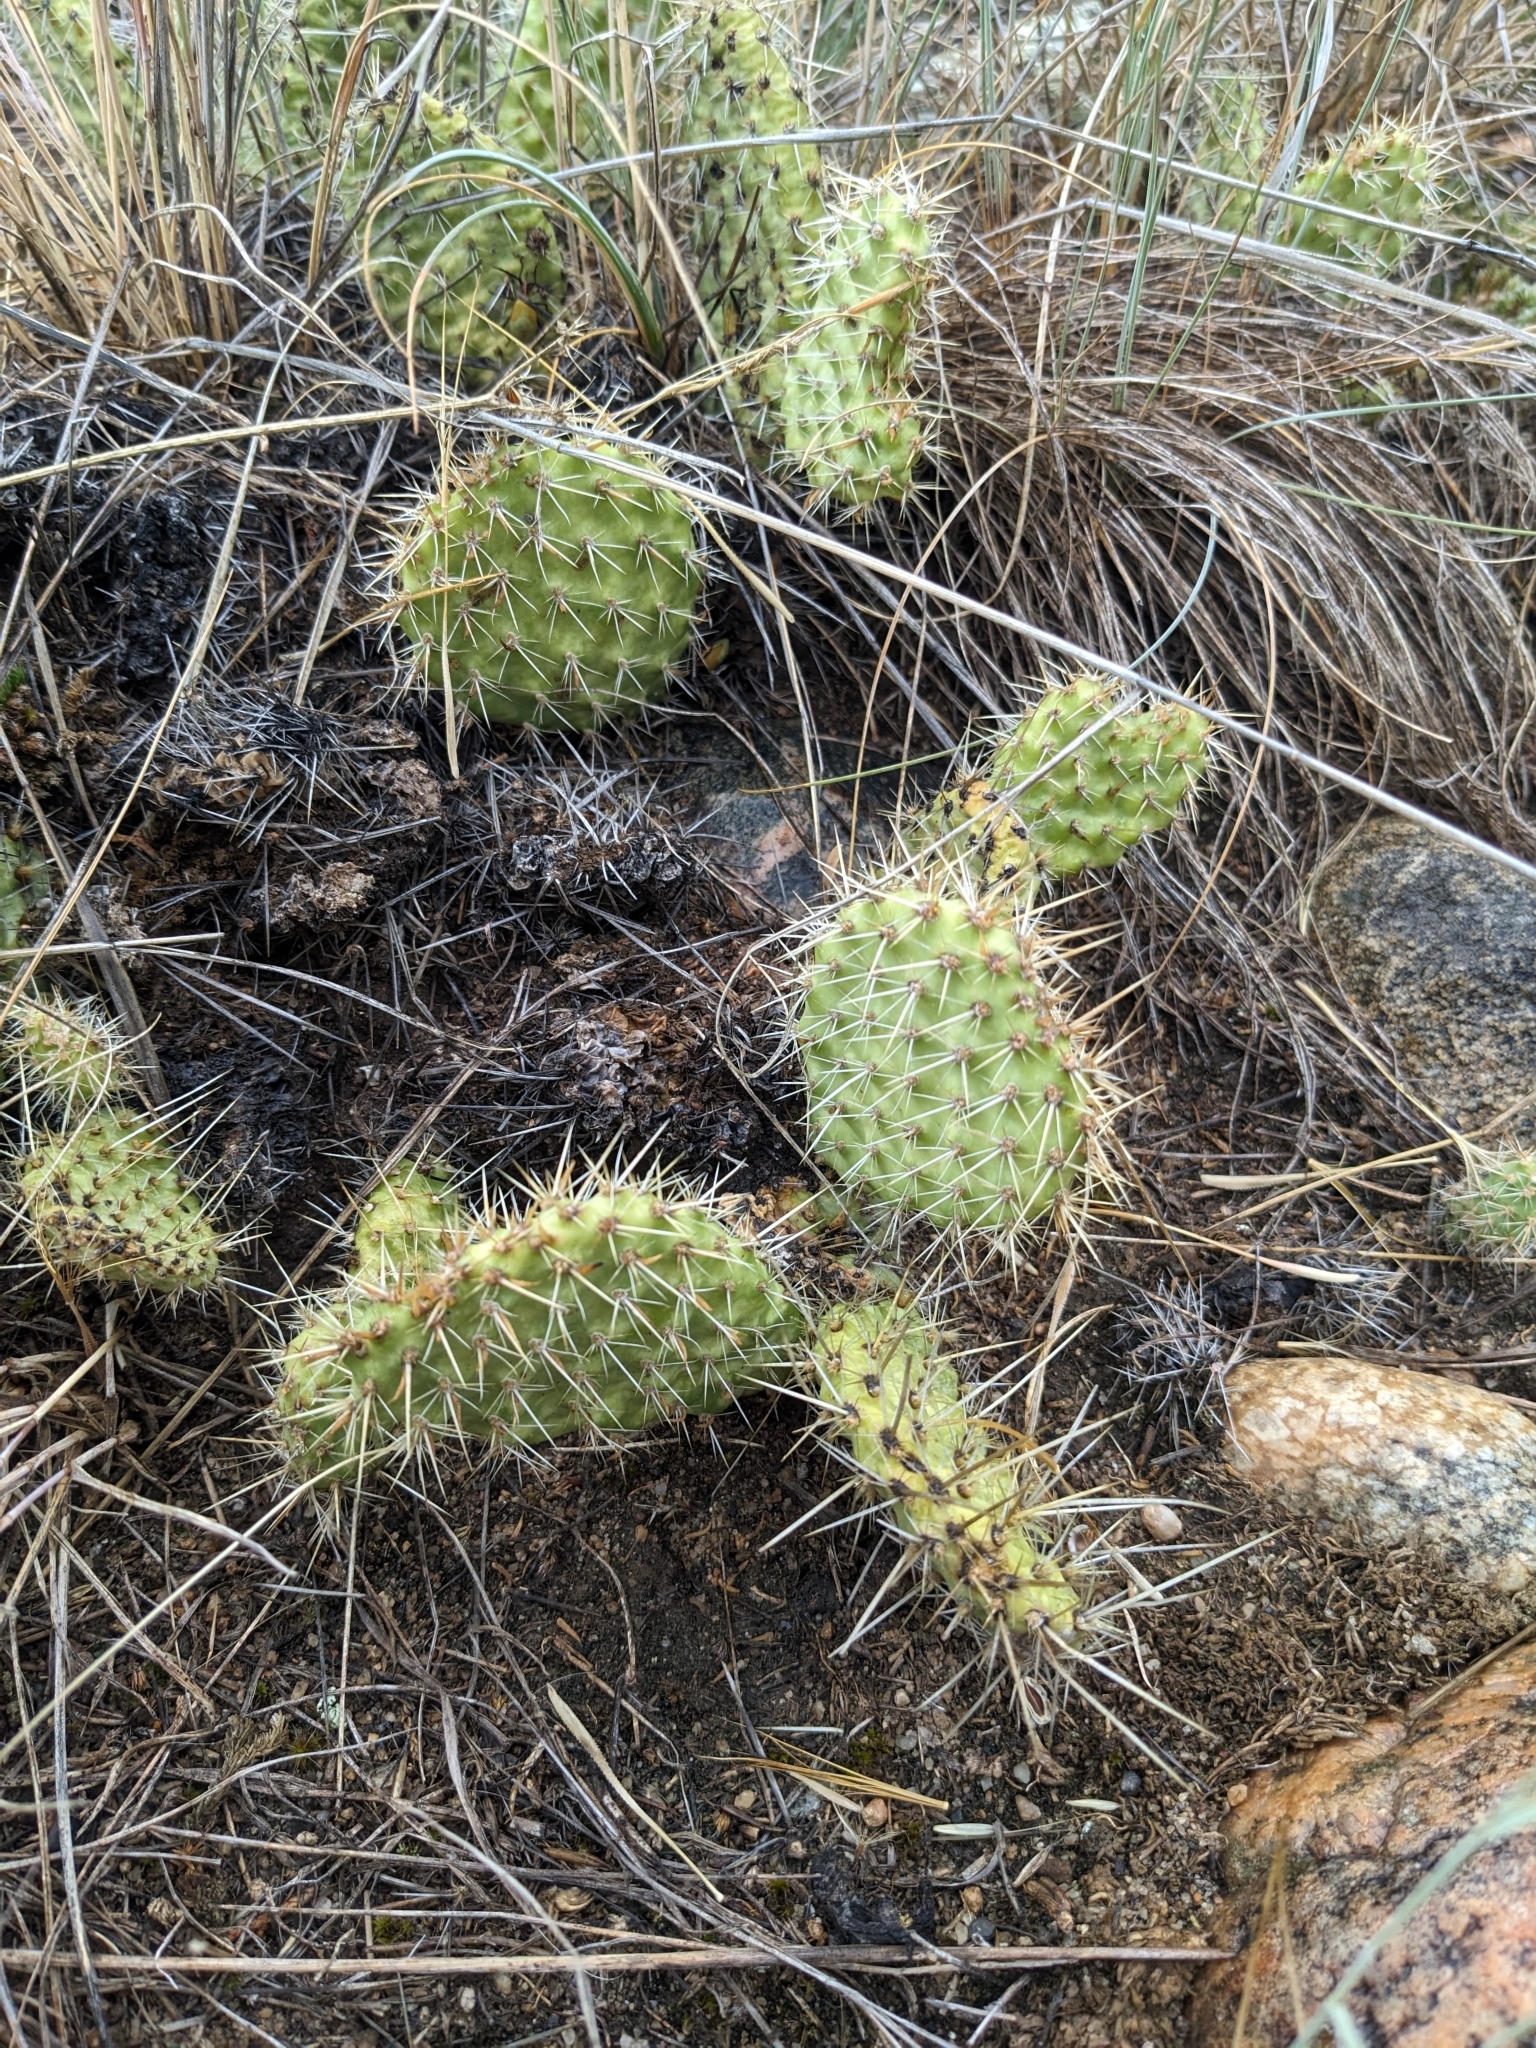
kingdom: Plantae
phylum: Tracheophyta
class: Magnoliopsida
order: Caryophyllales
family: Cactaceae
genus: Opuntia
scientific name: Opuntia polyacantha
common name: Plains prickly-pear
